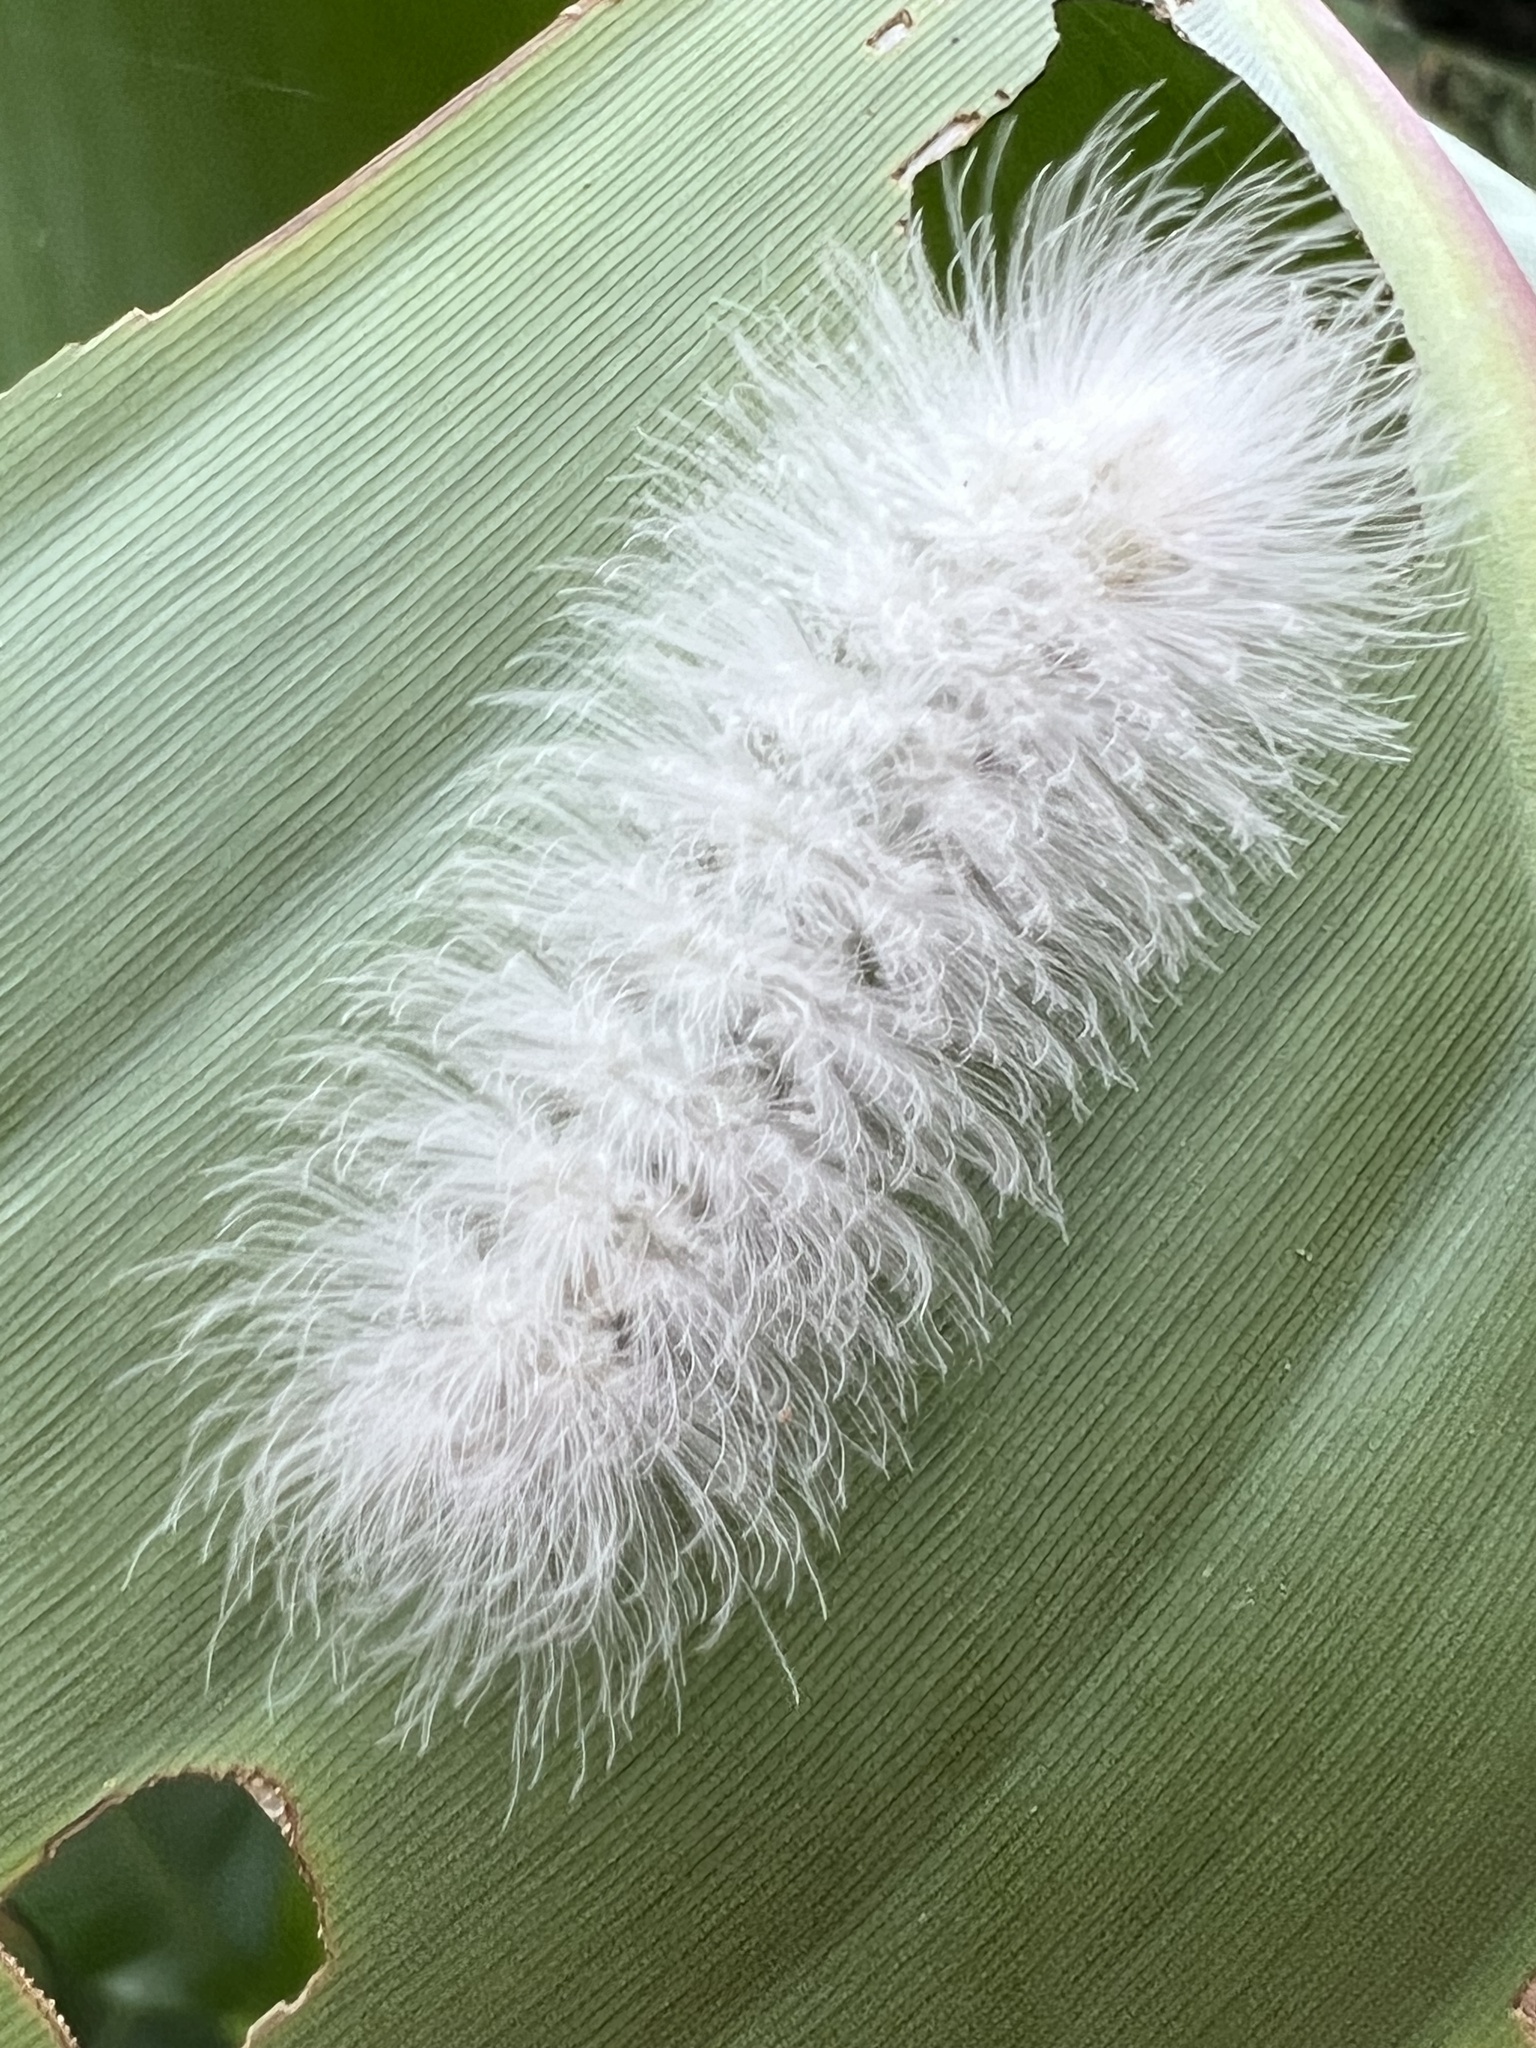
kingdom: Animalia
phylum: Arthropoda
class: Insecta
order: Lepidoptera
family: Erebidae
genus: Antichloris
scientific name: Antichloris eriphia
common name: Banana stowaway
